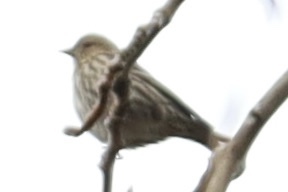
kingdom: Animalia
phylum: Chordata
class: Aves
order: Passeriformes
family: Fringillidae
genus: Spinus
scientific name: Spinus pinus
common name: Pine siskin
